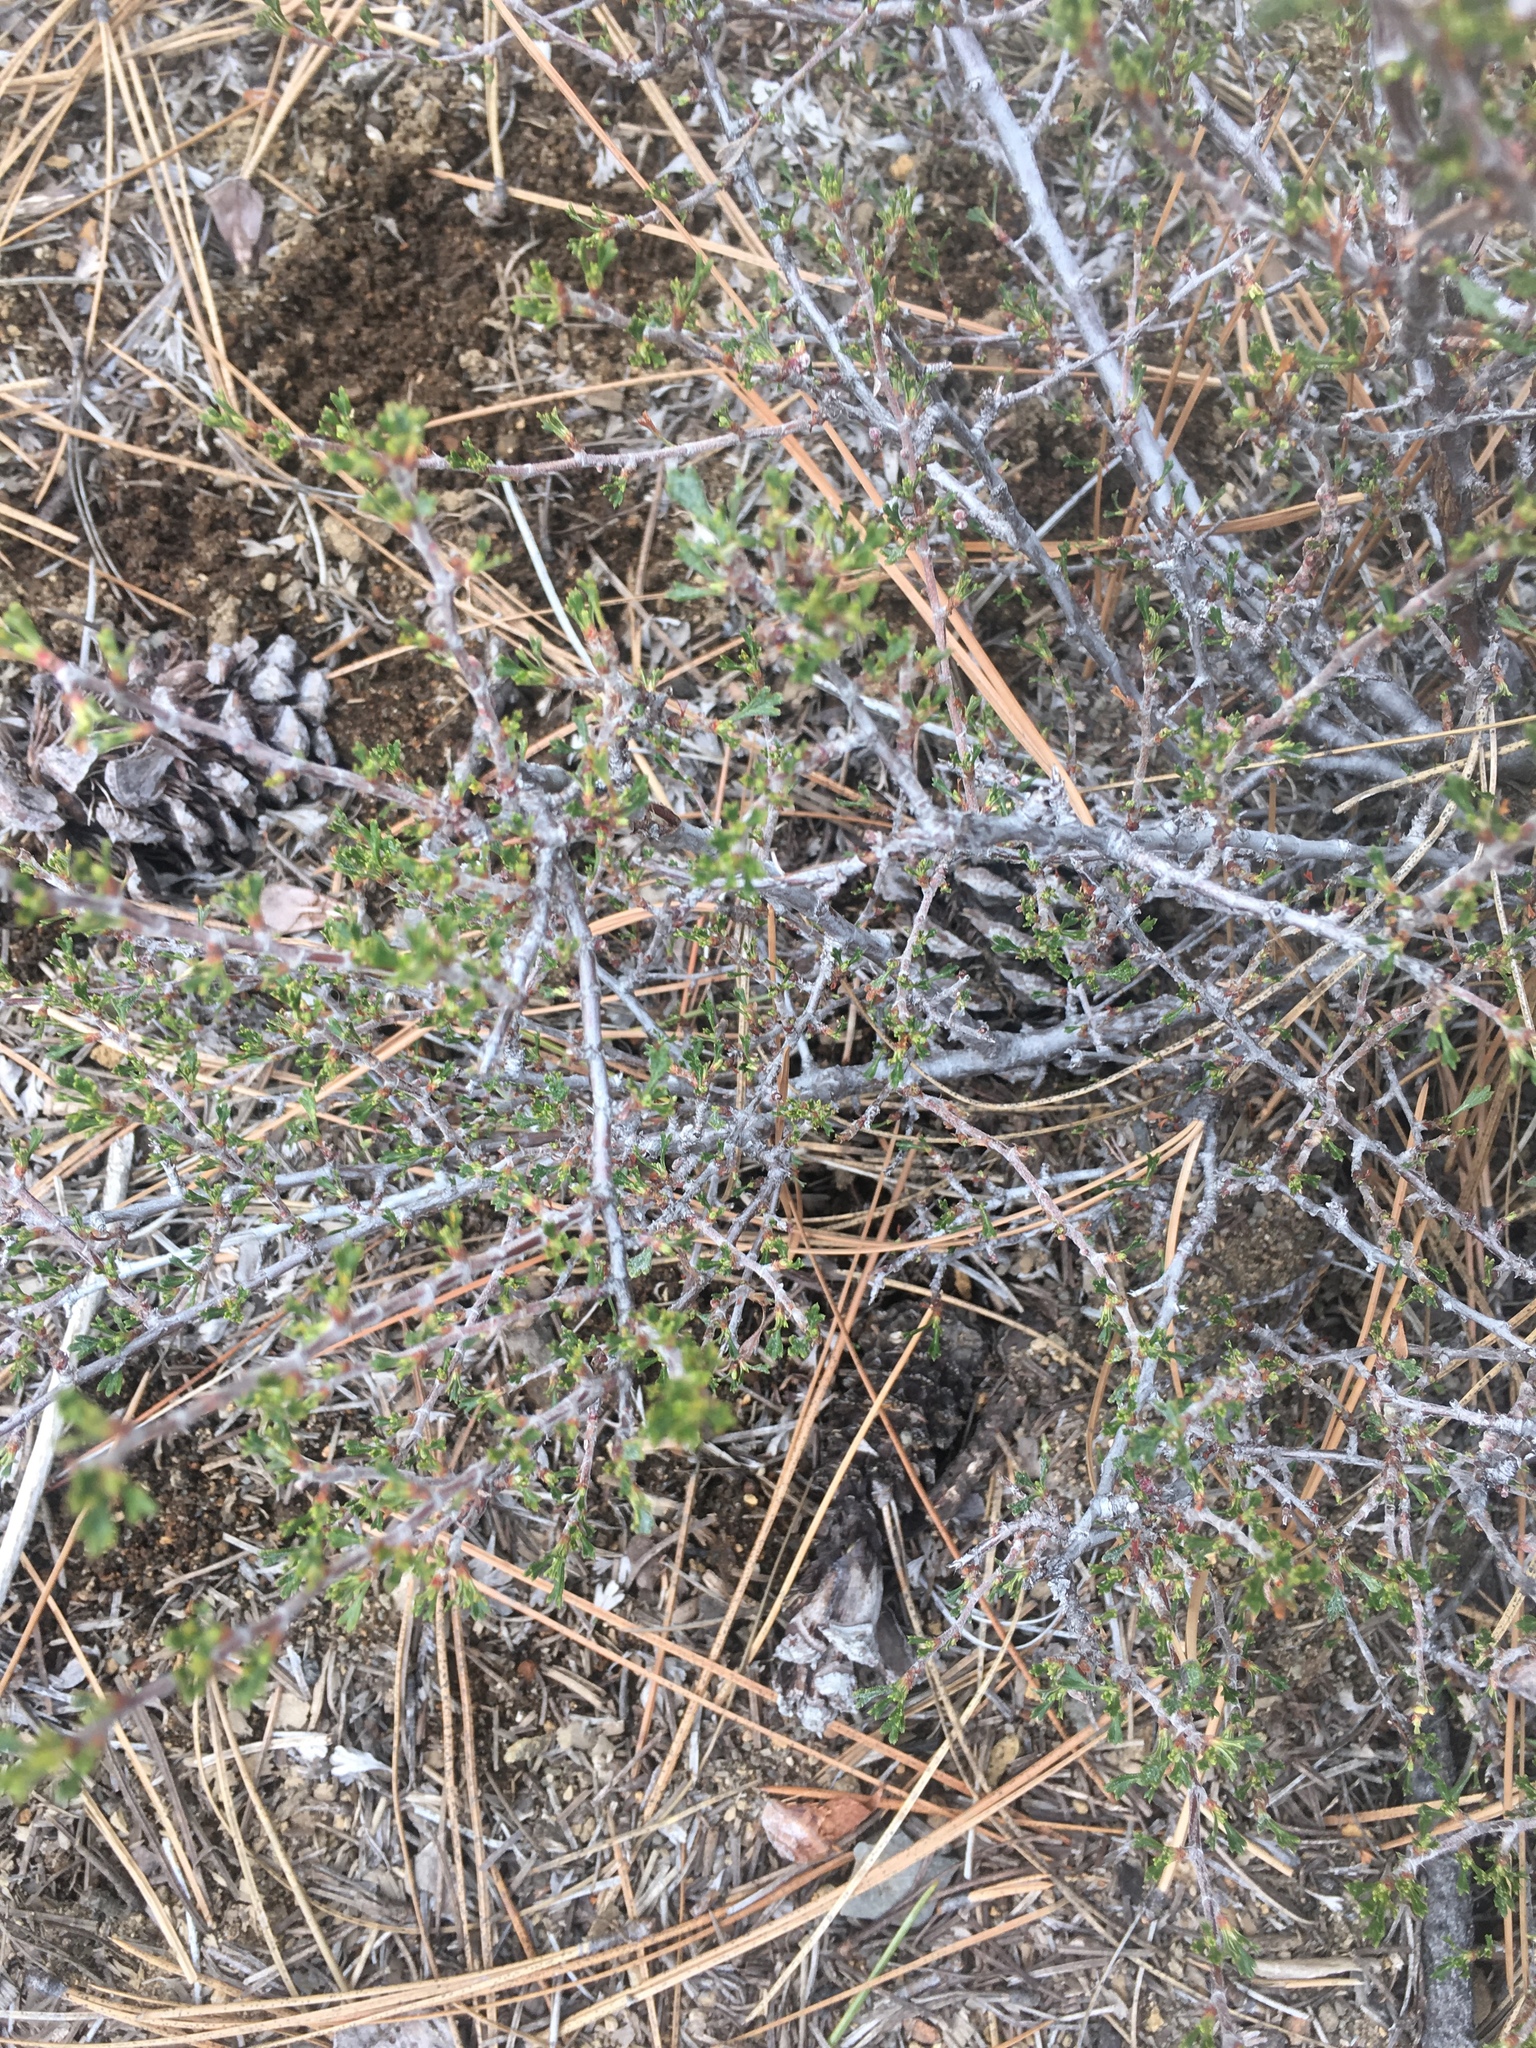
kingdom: Plantae
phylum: Tracheophyta
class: Magnoliopsida
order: Rosales
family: Rosaceae
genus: Purshia
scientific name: Purshia tridentata
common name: Antelope bitterbrush
